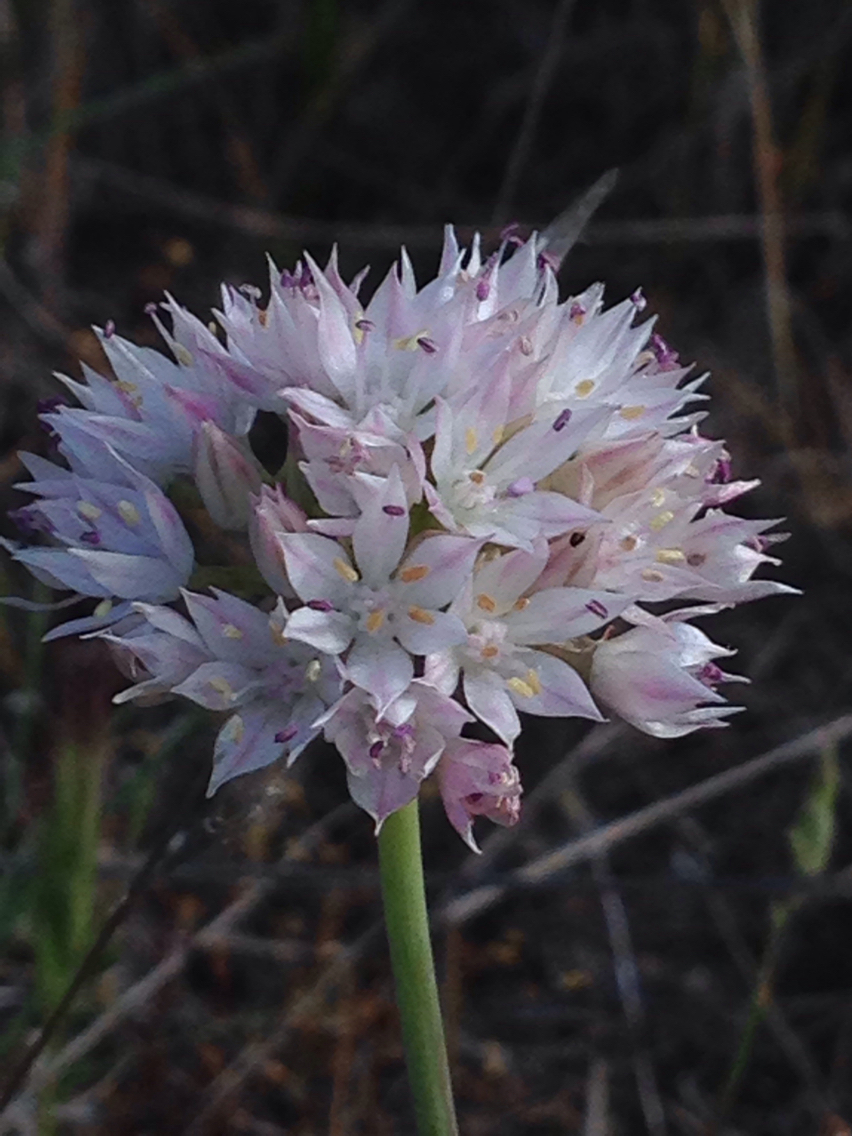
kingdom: Plantae
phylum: Tracheophyta
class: Liliopsida
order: Asparagales
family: Amaryllidaceae
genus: Allium
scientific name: Allium amplectens
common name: Narrow-leaved onion
